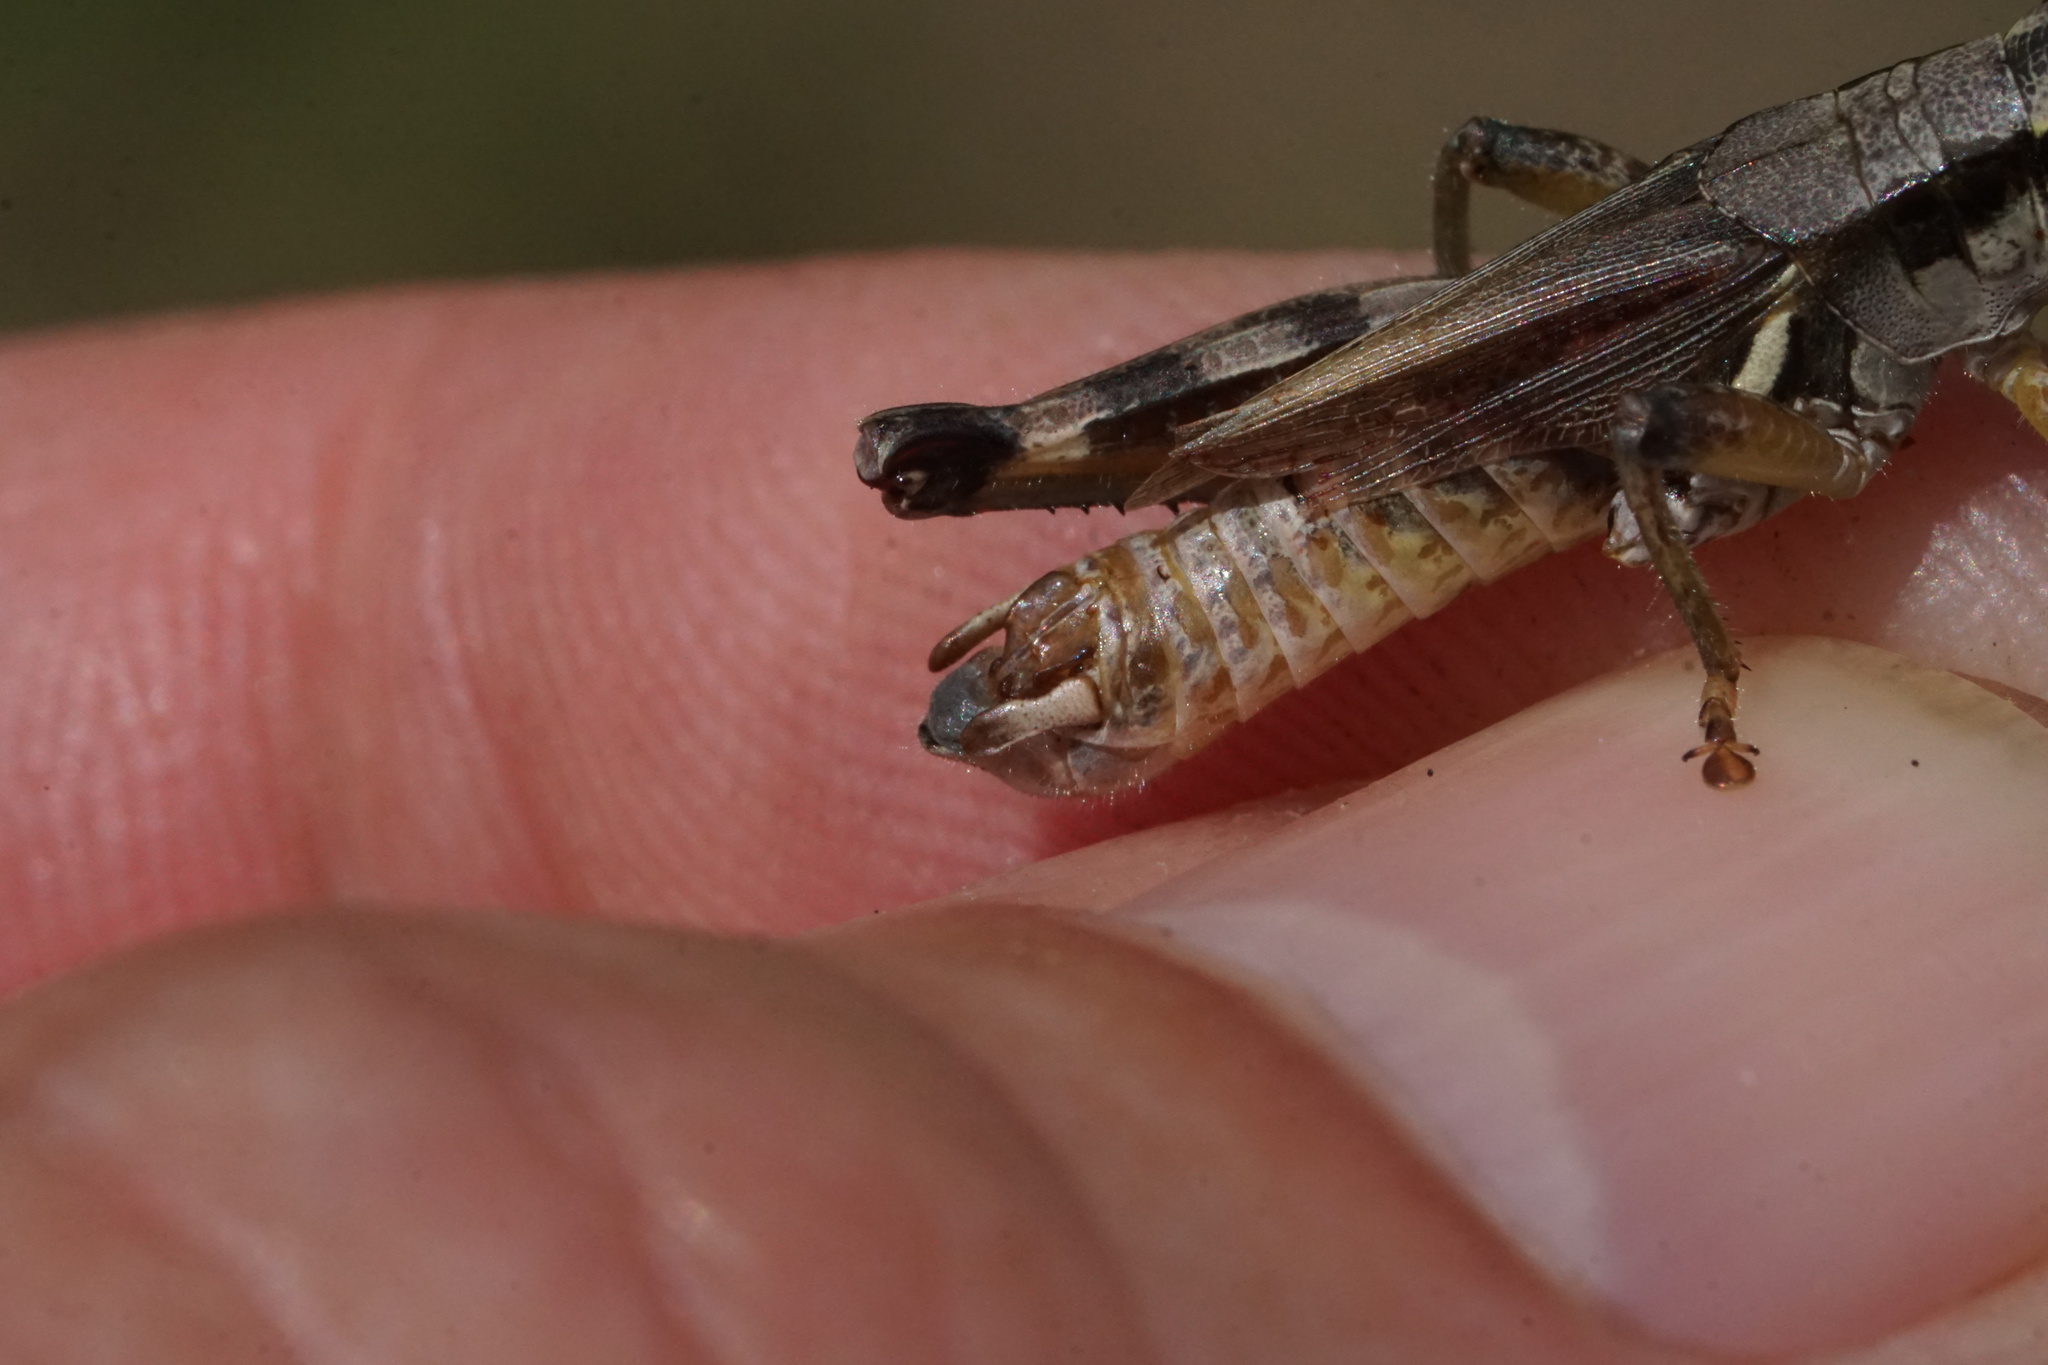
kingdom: Animalia
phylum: Arthropoda
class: Insecta
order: Orthoptera
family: Acrididae
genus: Melanoplus
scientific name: Melanoplus fasciatus
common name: Huckleberry locust
